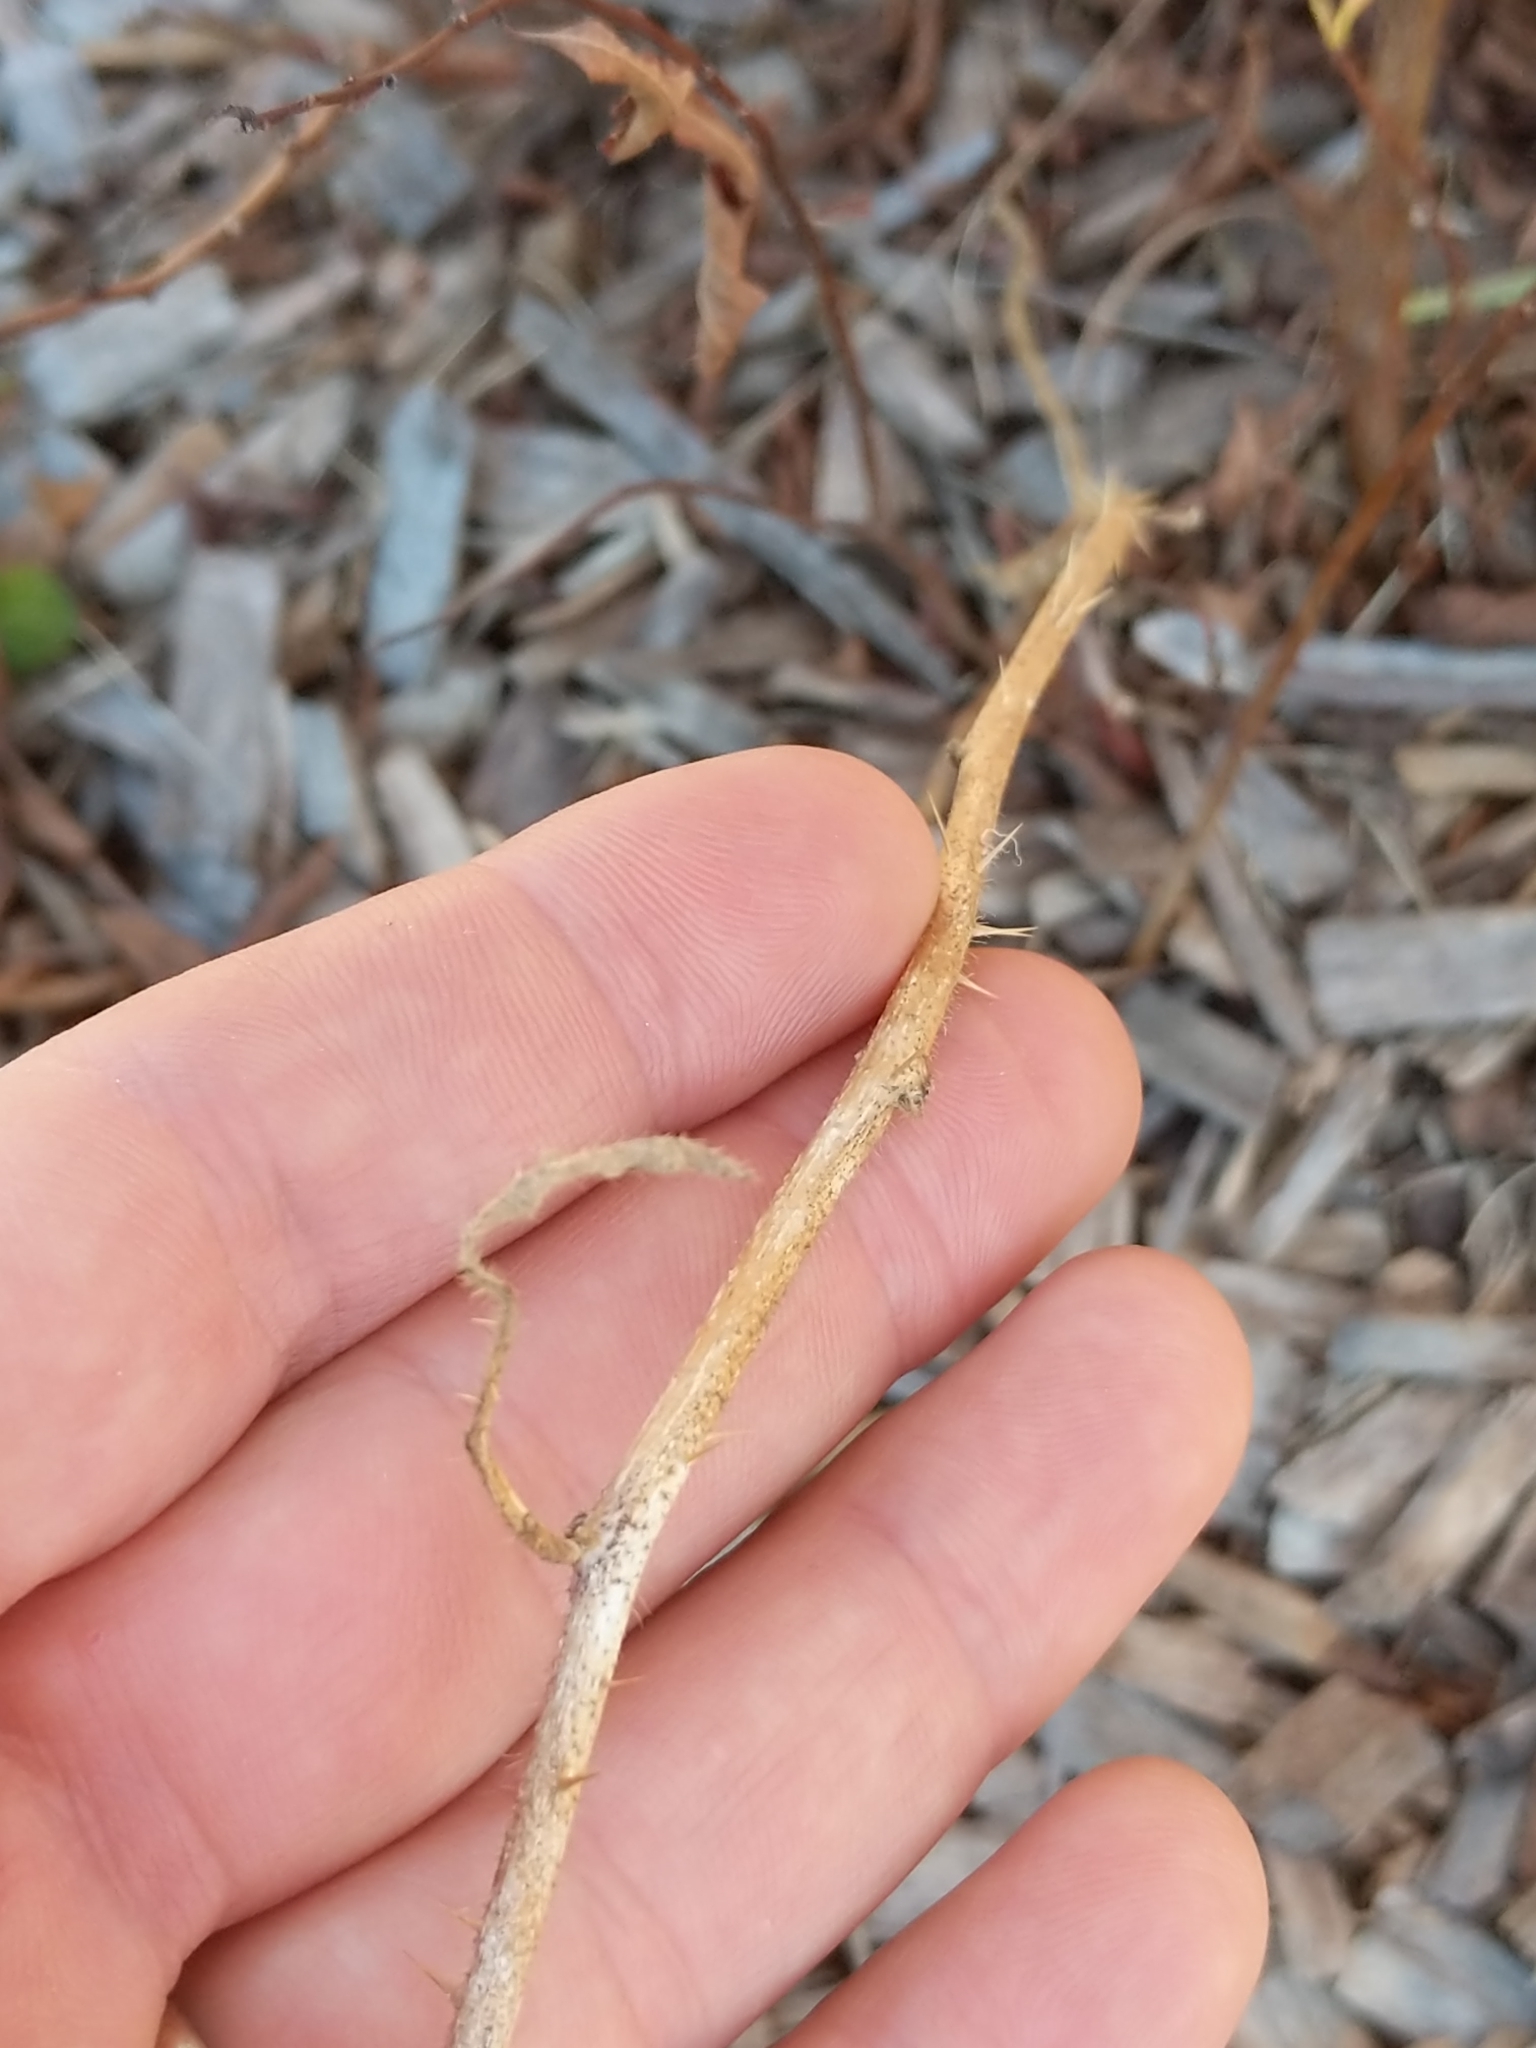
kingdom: Plantae
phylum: Tracheophyta
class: Magnoliopsida
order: Solanales
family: Solanaceae
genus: Solanum
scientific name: Solanum carolinense
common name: Horse-nettle
